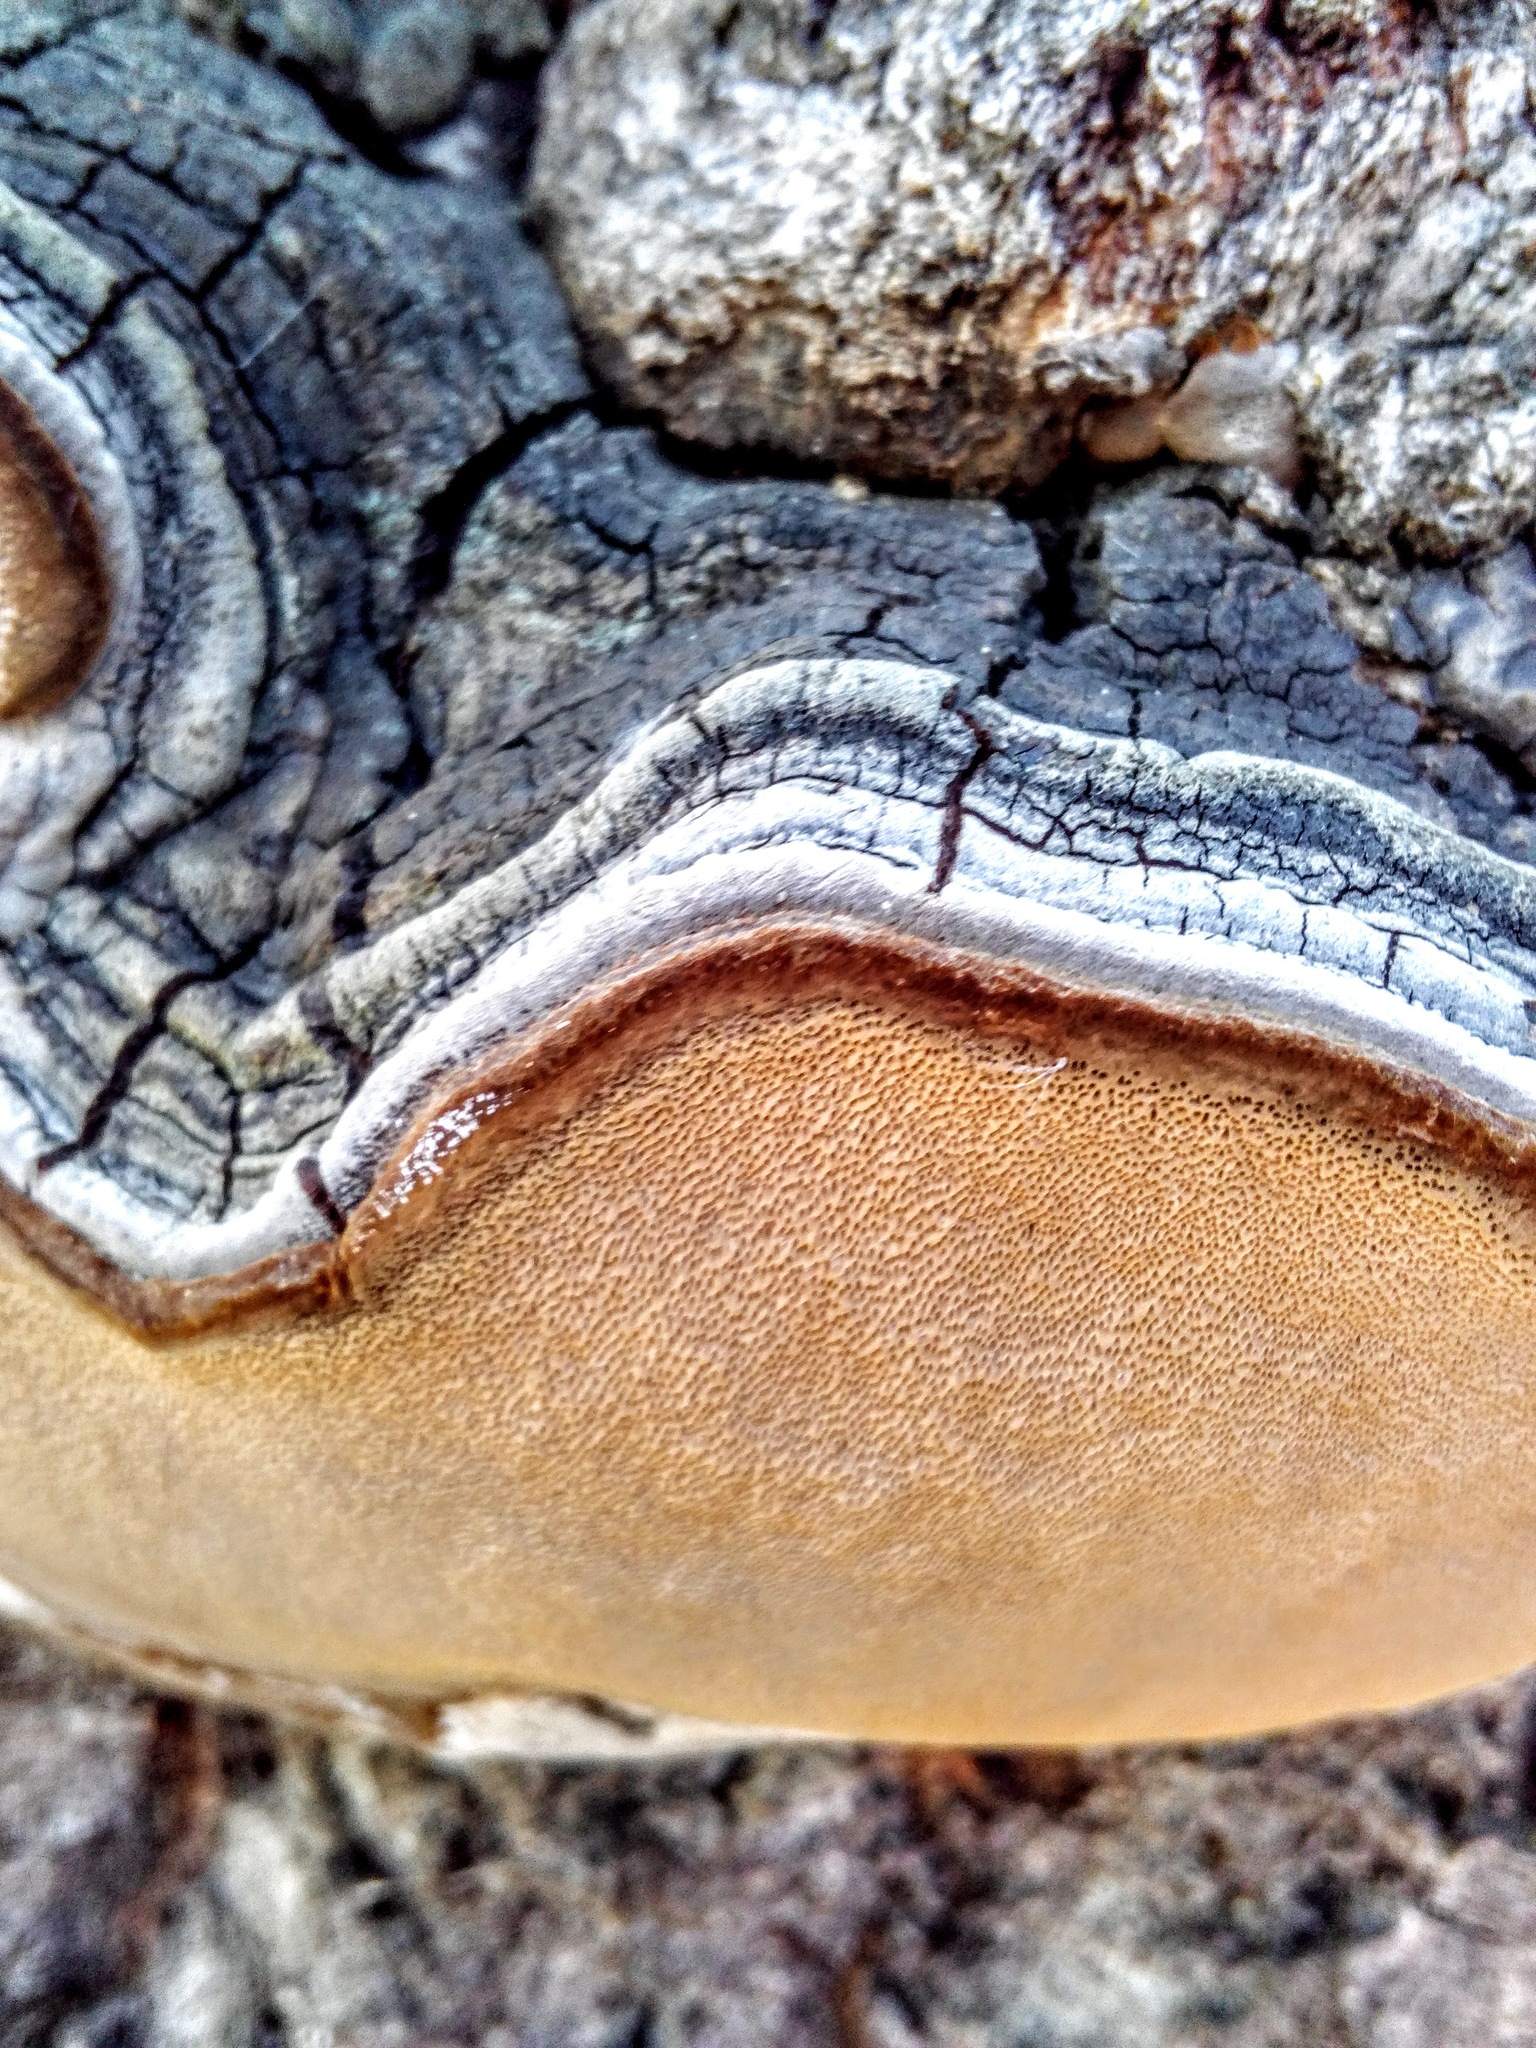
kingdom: Fungi
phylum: Basidiomycota
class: Agaricomycetes
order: Hymenochaetales
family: Hymenochaetaceae
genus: Phellinus
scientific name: Phellinus tremulae
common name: Aspen bracket
